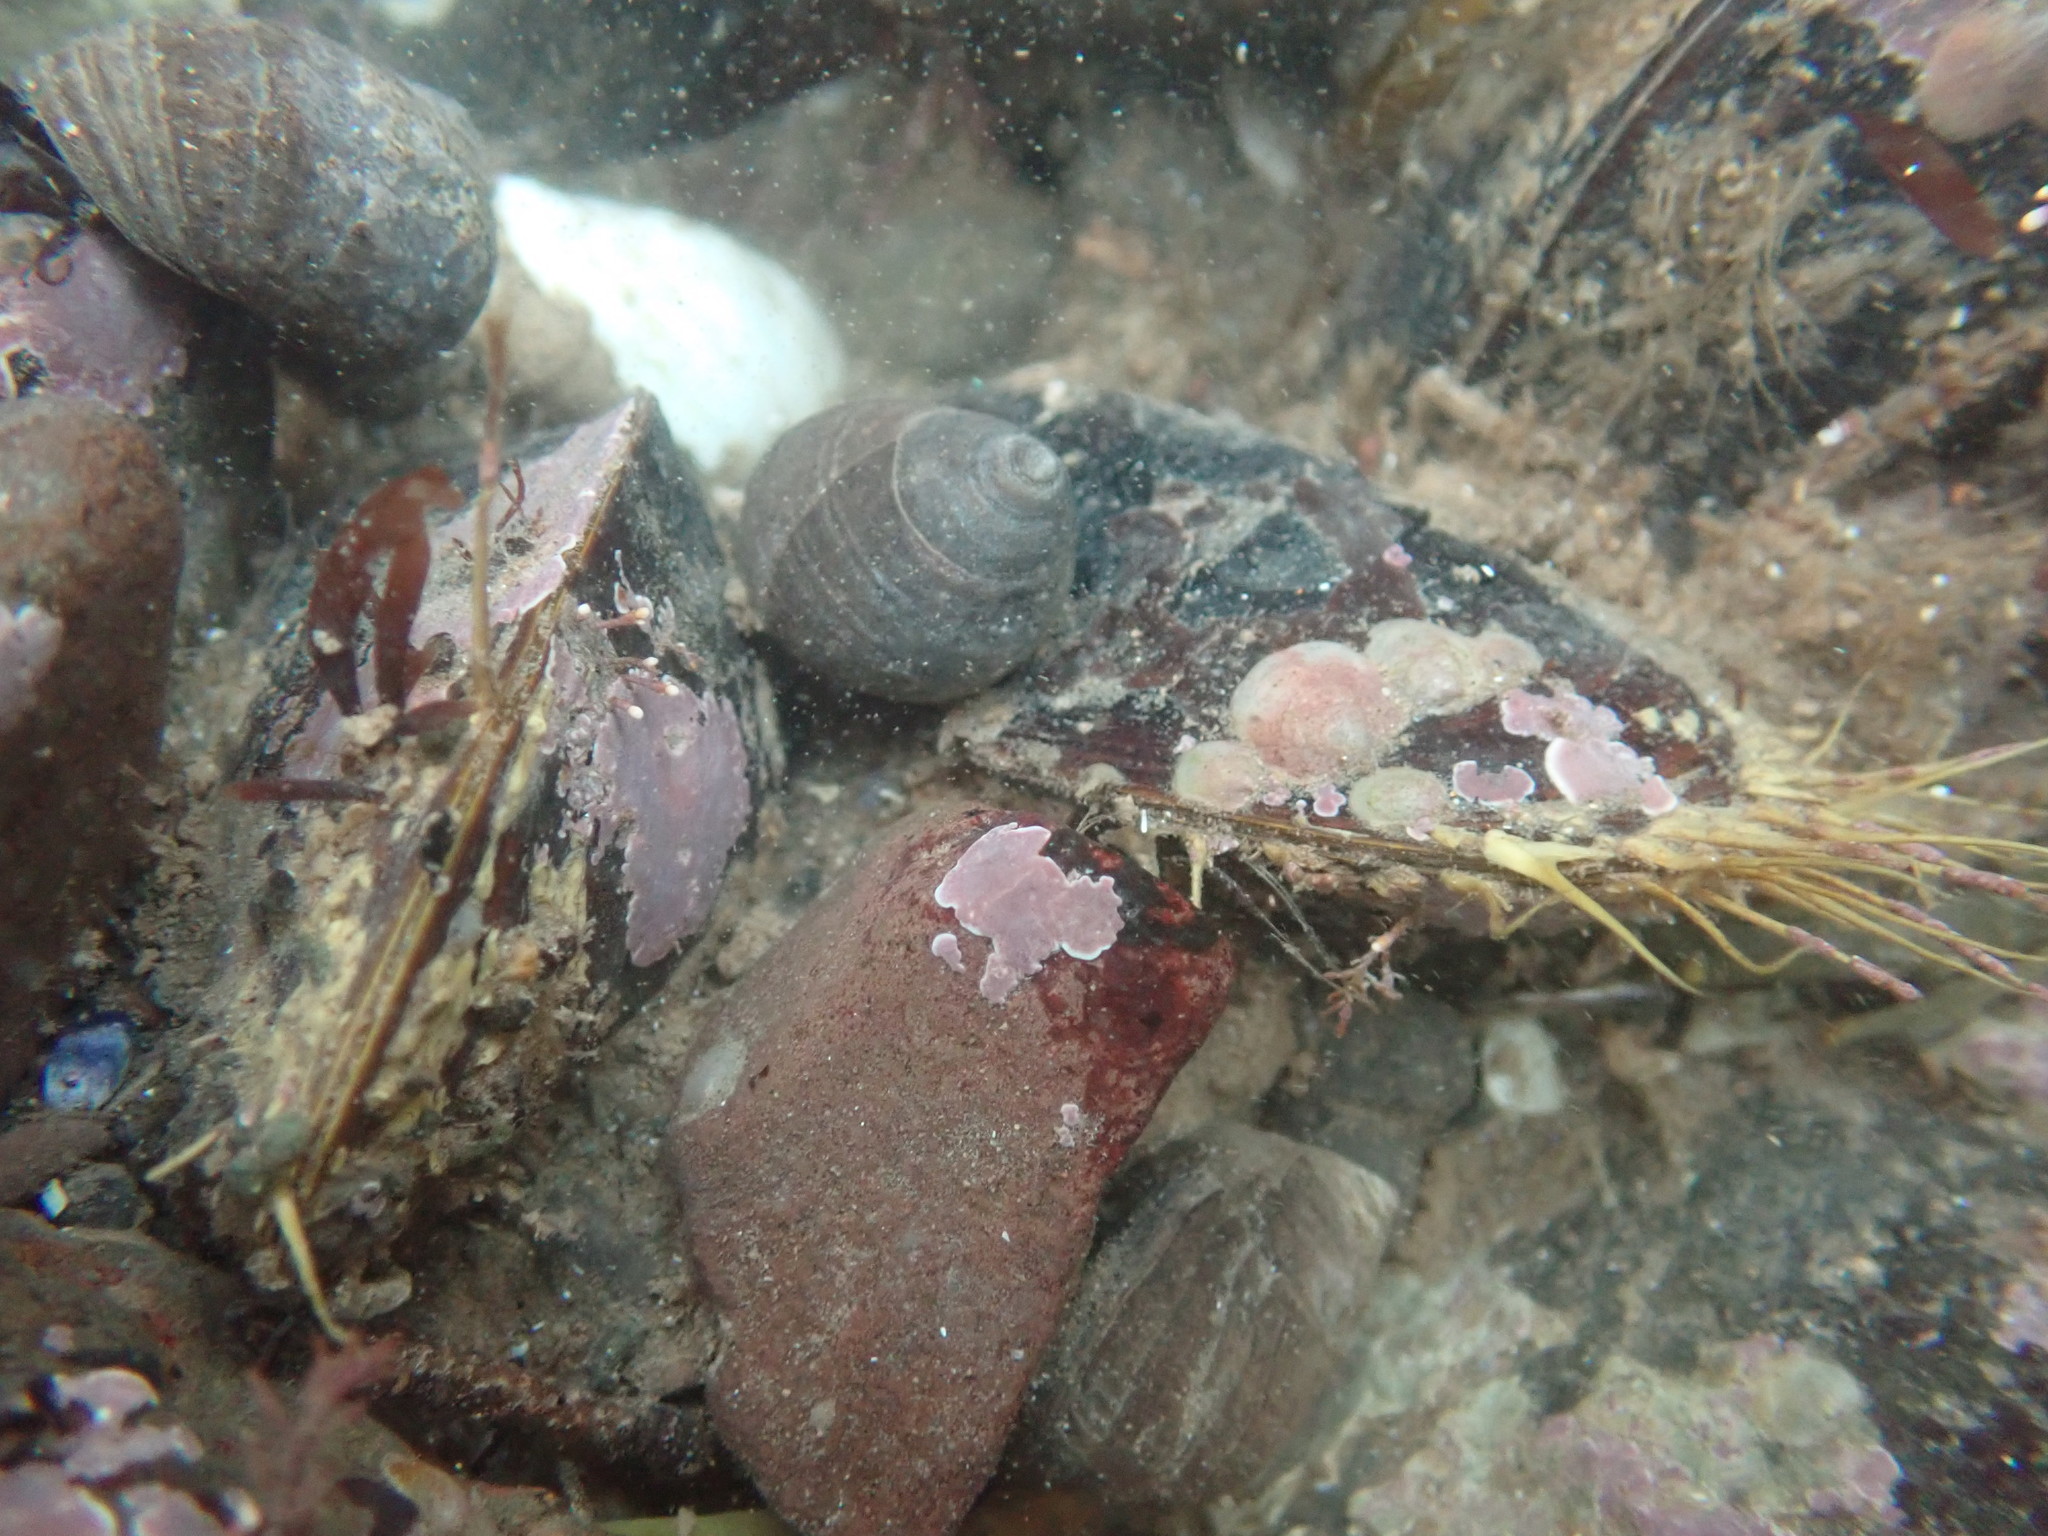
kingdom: Animalia
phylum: Mollusca
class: Bivalvia
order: Mytilida
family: Mytilidae
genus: Modiolus
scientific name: Modiolus modiolus
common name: Horse-mussel
